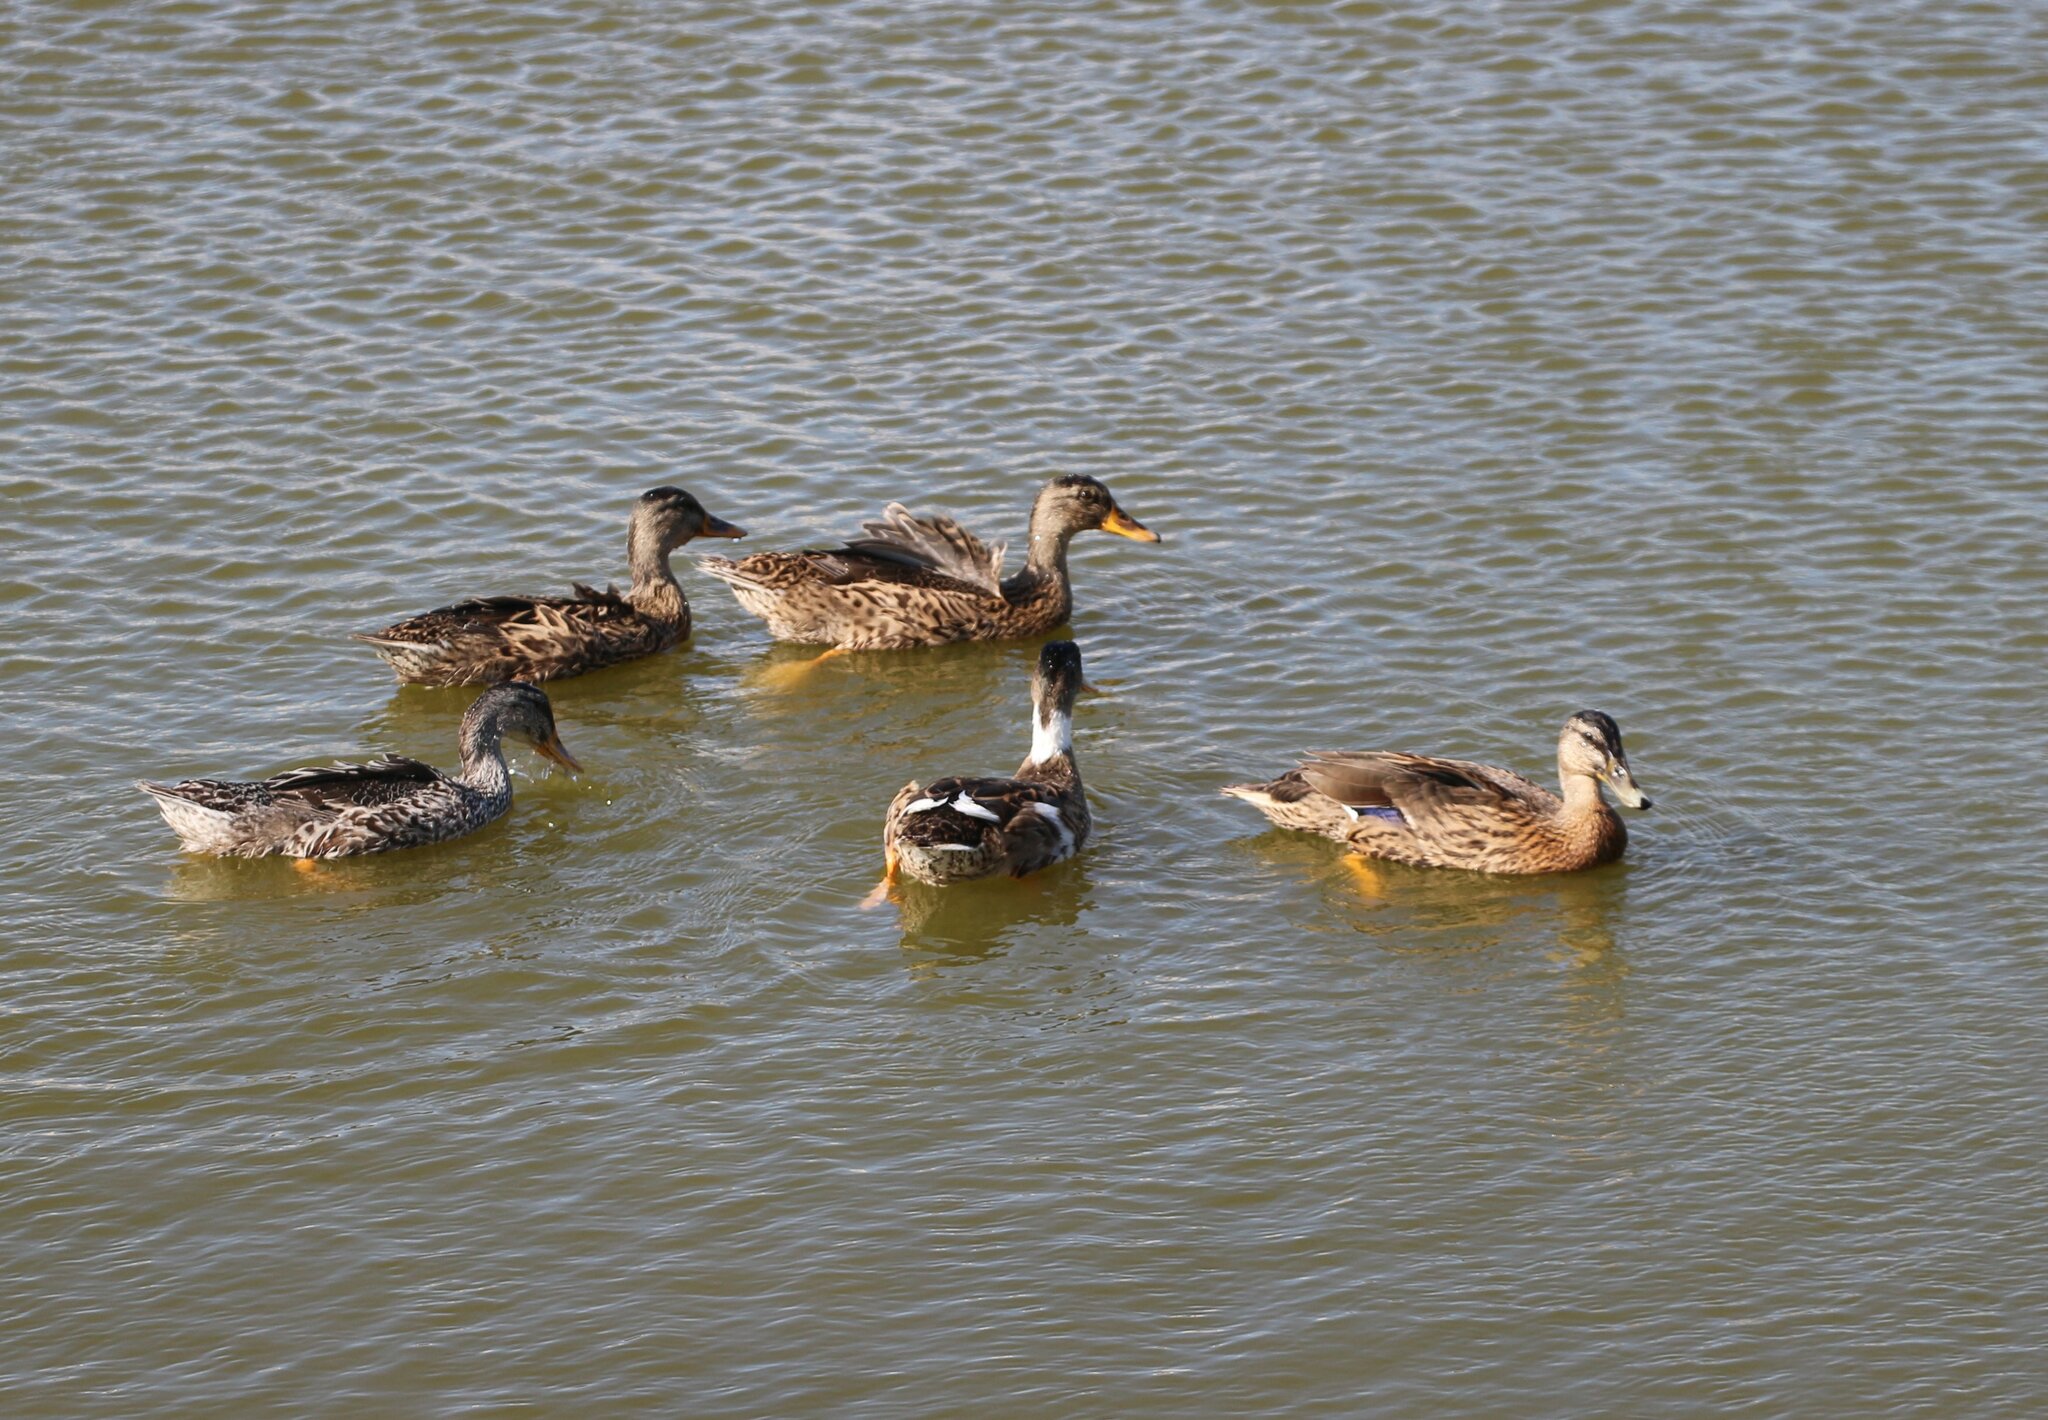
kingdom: Animalia
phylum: Chordata
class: Aves
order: Anseriformes
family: Anatidae
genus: Anas
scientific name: Anas platyrhynchos
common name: Mallard
